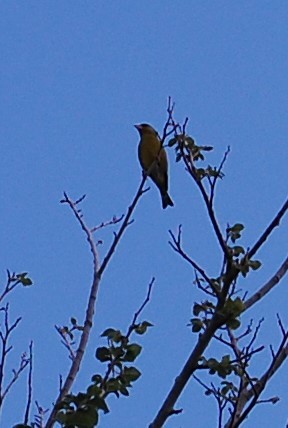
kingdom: Plantae
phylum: Tracheophyta
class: Liliopsida
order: Poales
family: Poaceae
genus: Chloris
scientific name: Chloris chloris
